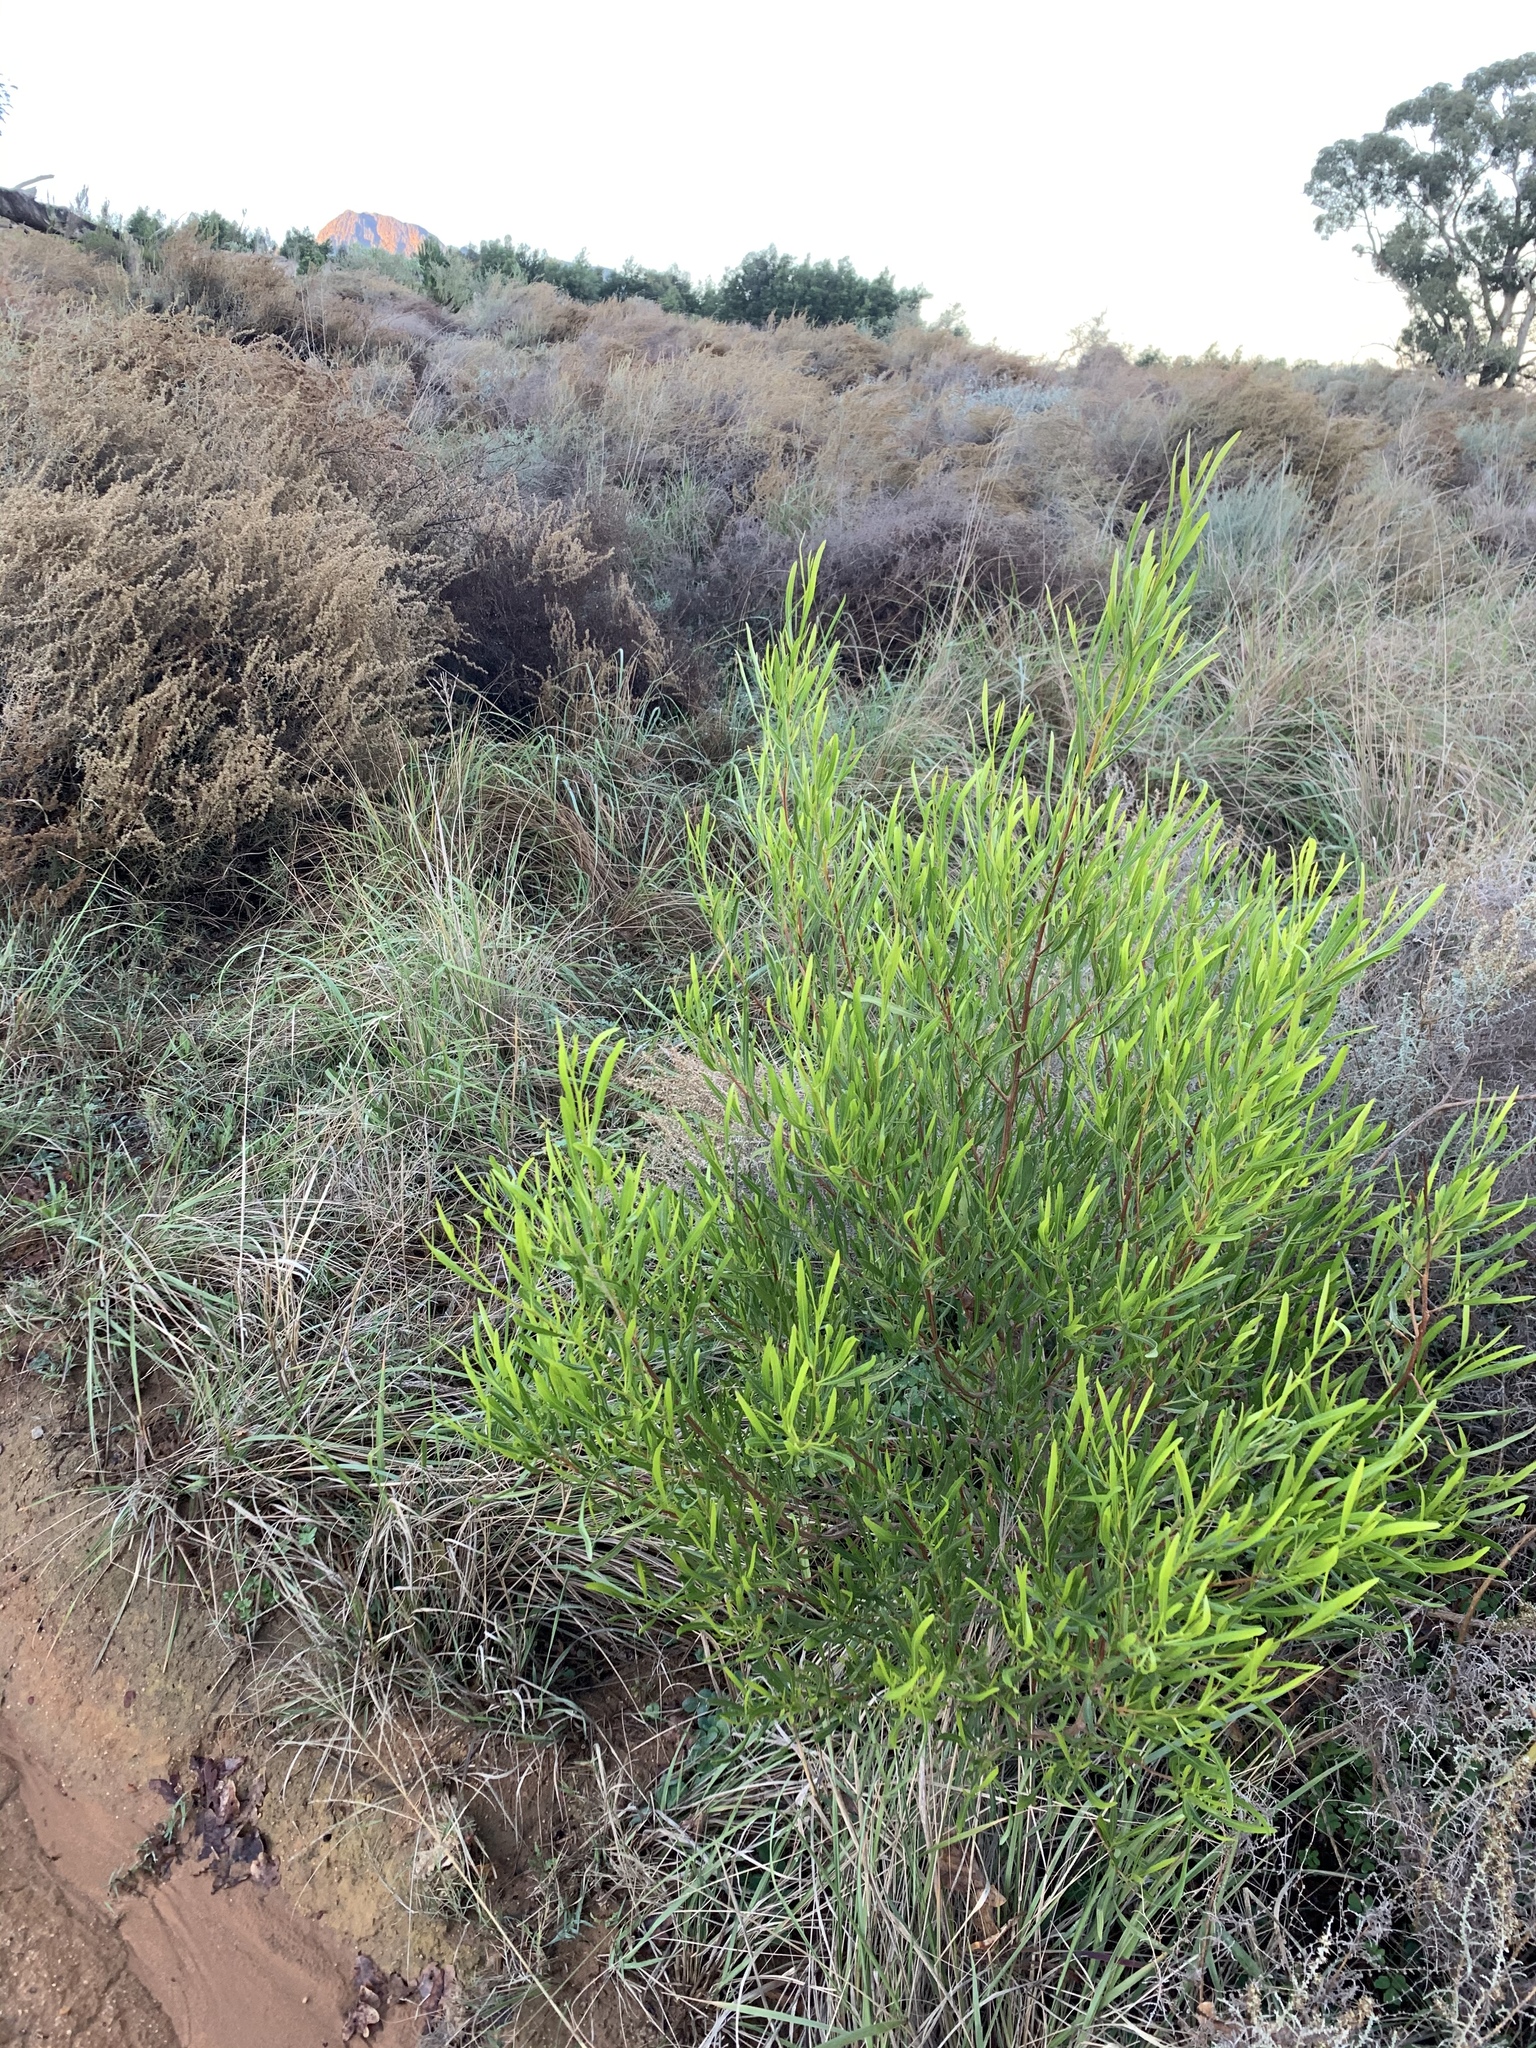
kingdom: Plantae
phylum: Tracheophyta
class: Magnoliopsida
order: Sapindales
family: Sapindaceae
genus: Dodonaea
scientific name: Dodonaea viscosa
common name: Hopbush
